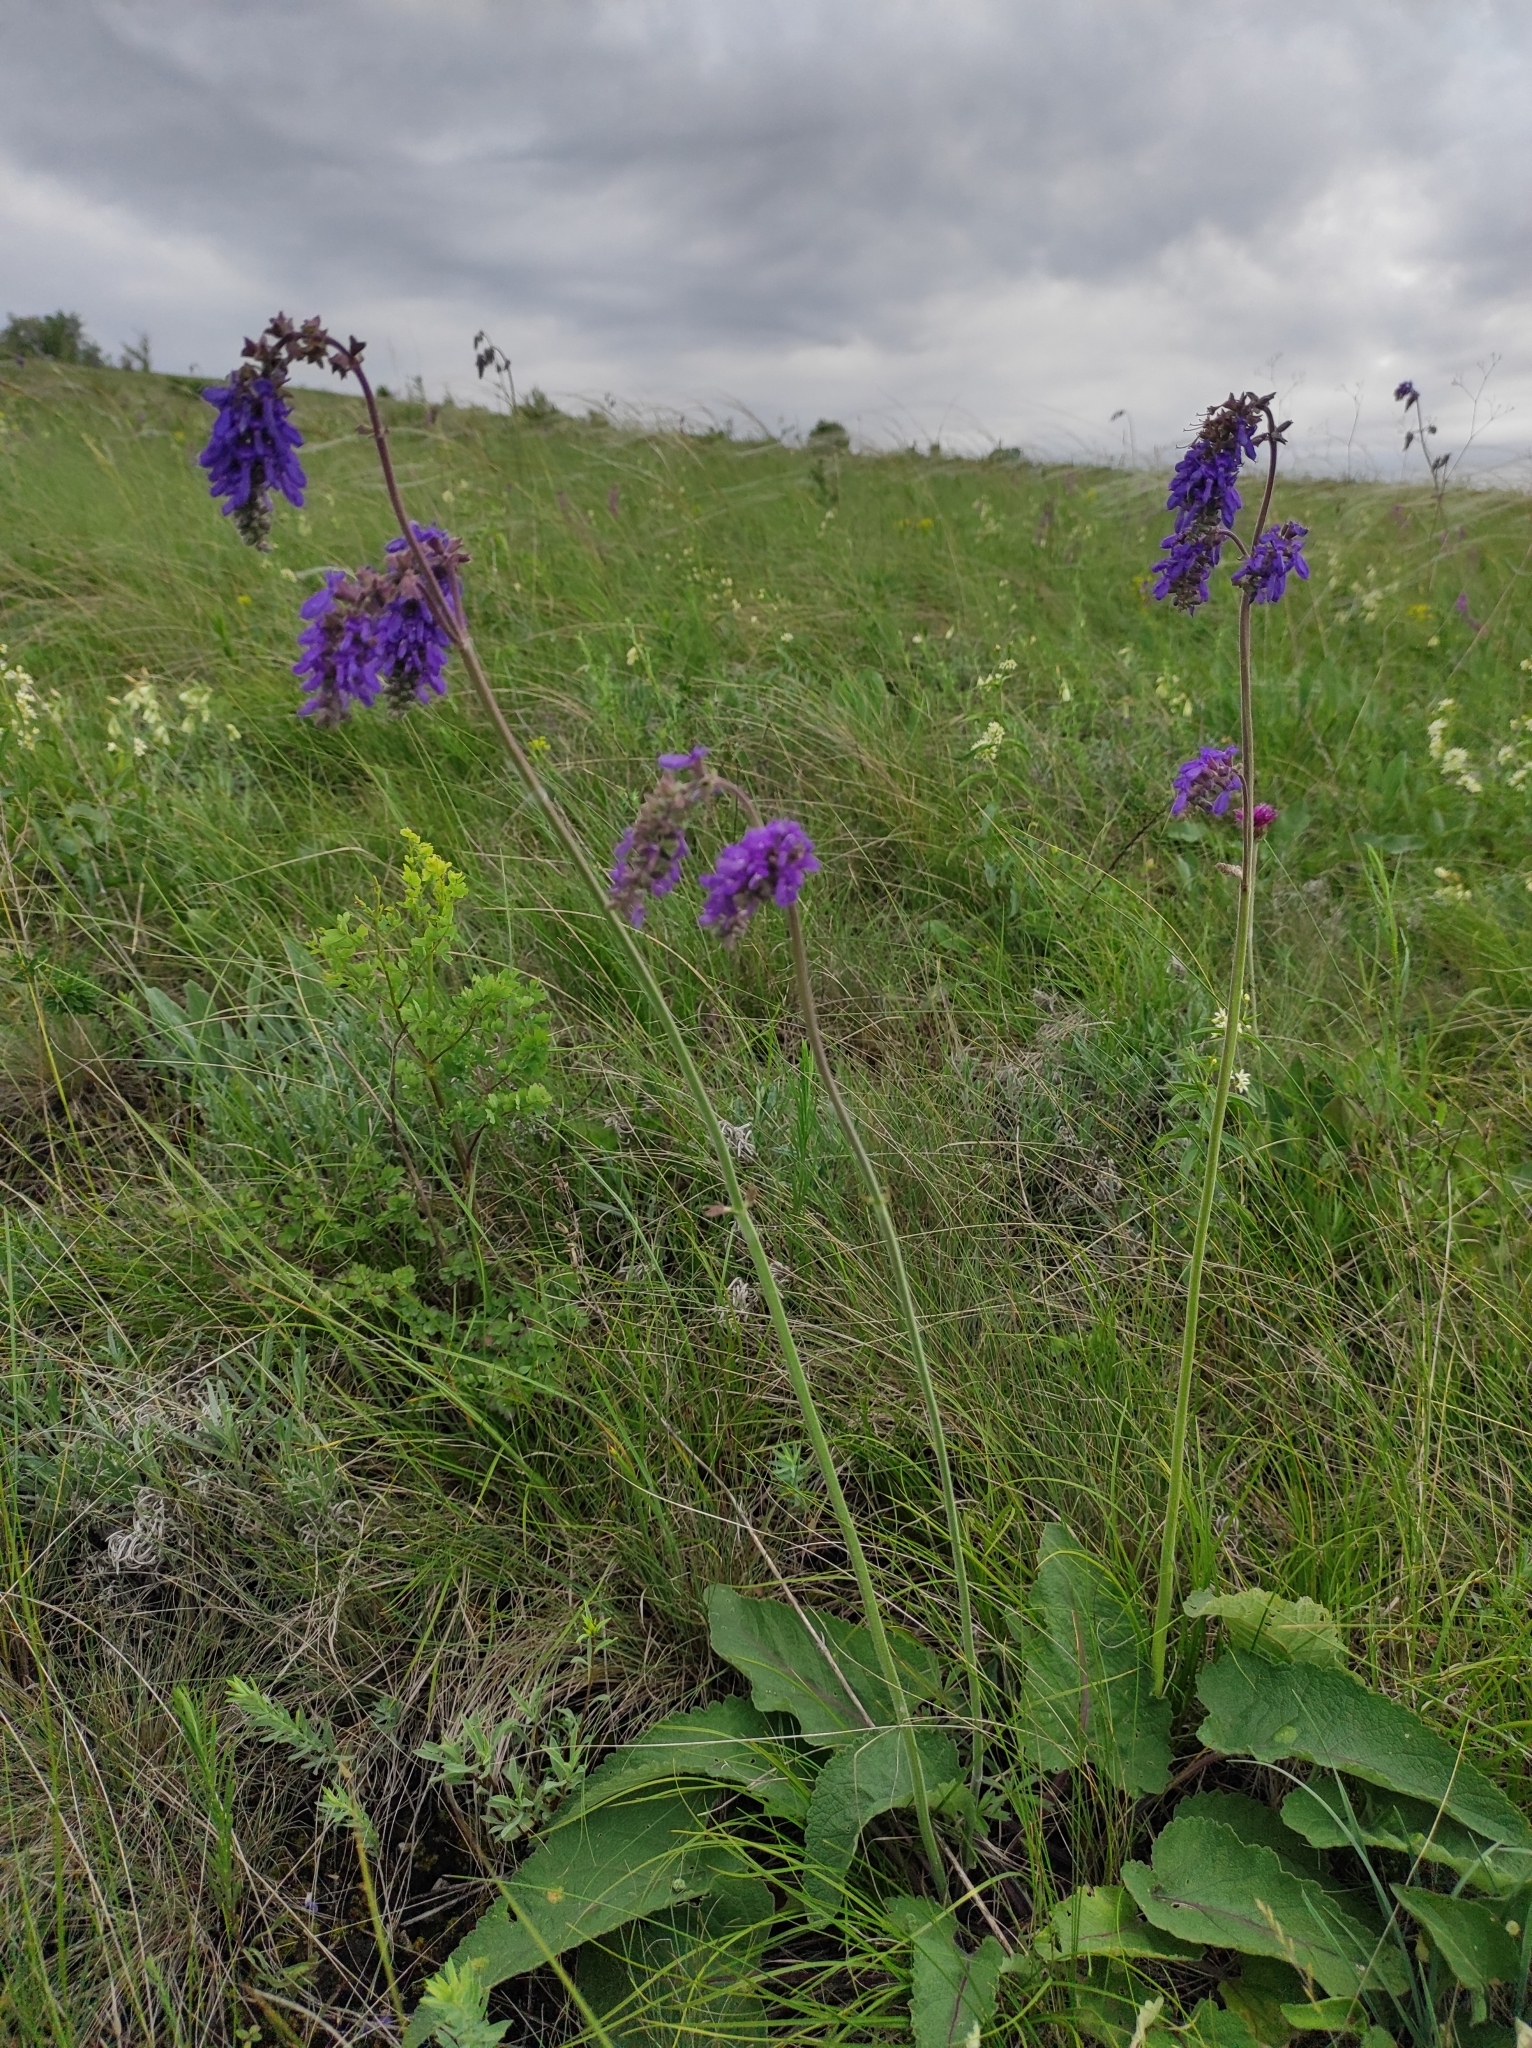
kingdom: Plantae
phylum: Tracheophyta
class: Magnoliopsida
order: Lamiales
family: Lamiaceae
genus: Salvia
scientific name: Salvia nutans
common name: Nodding sage
